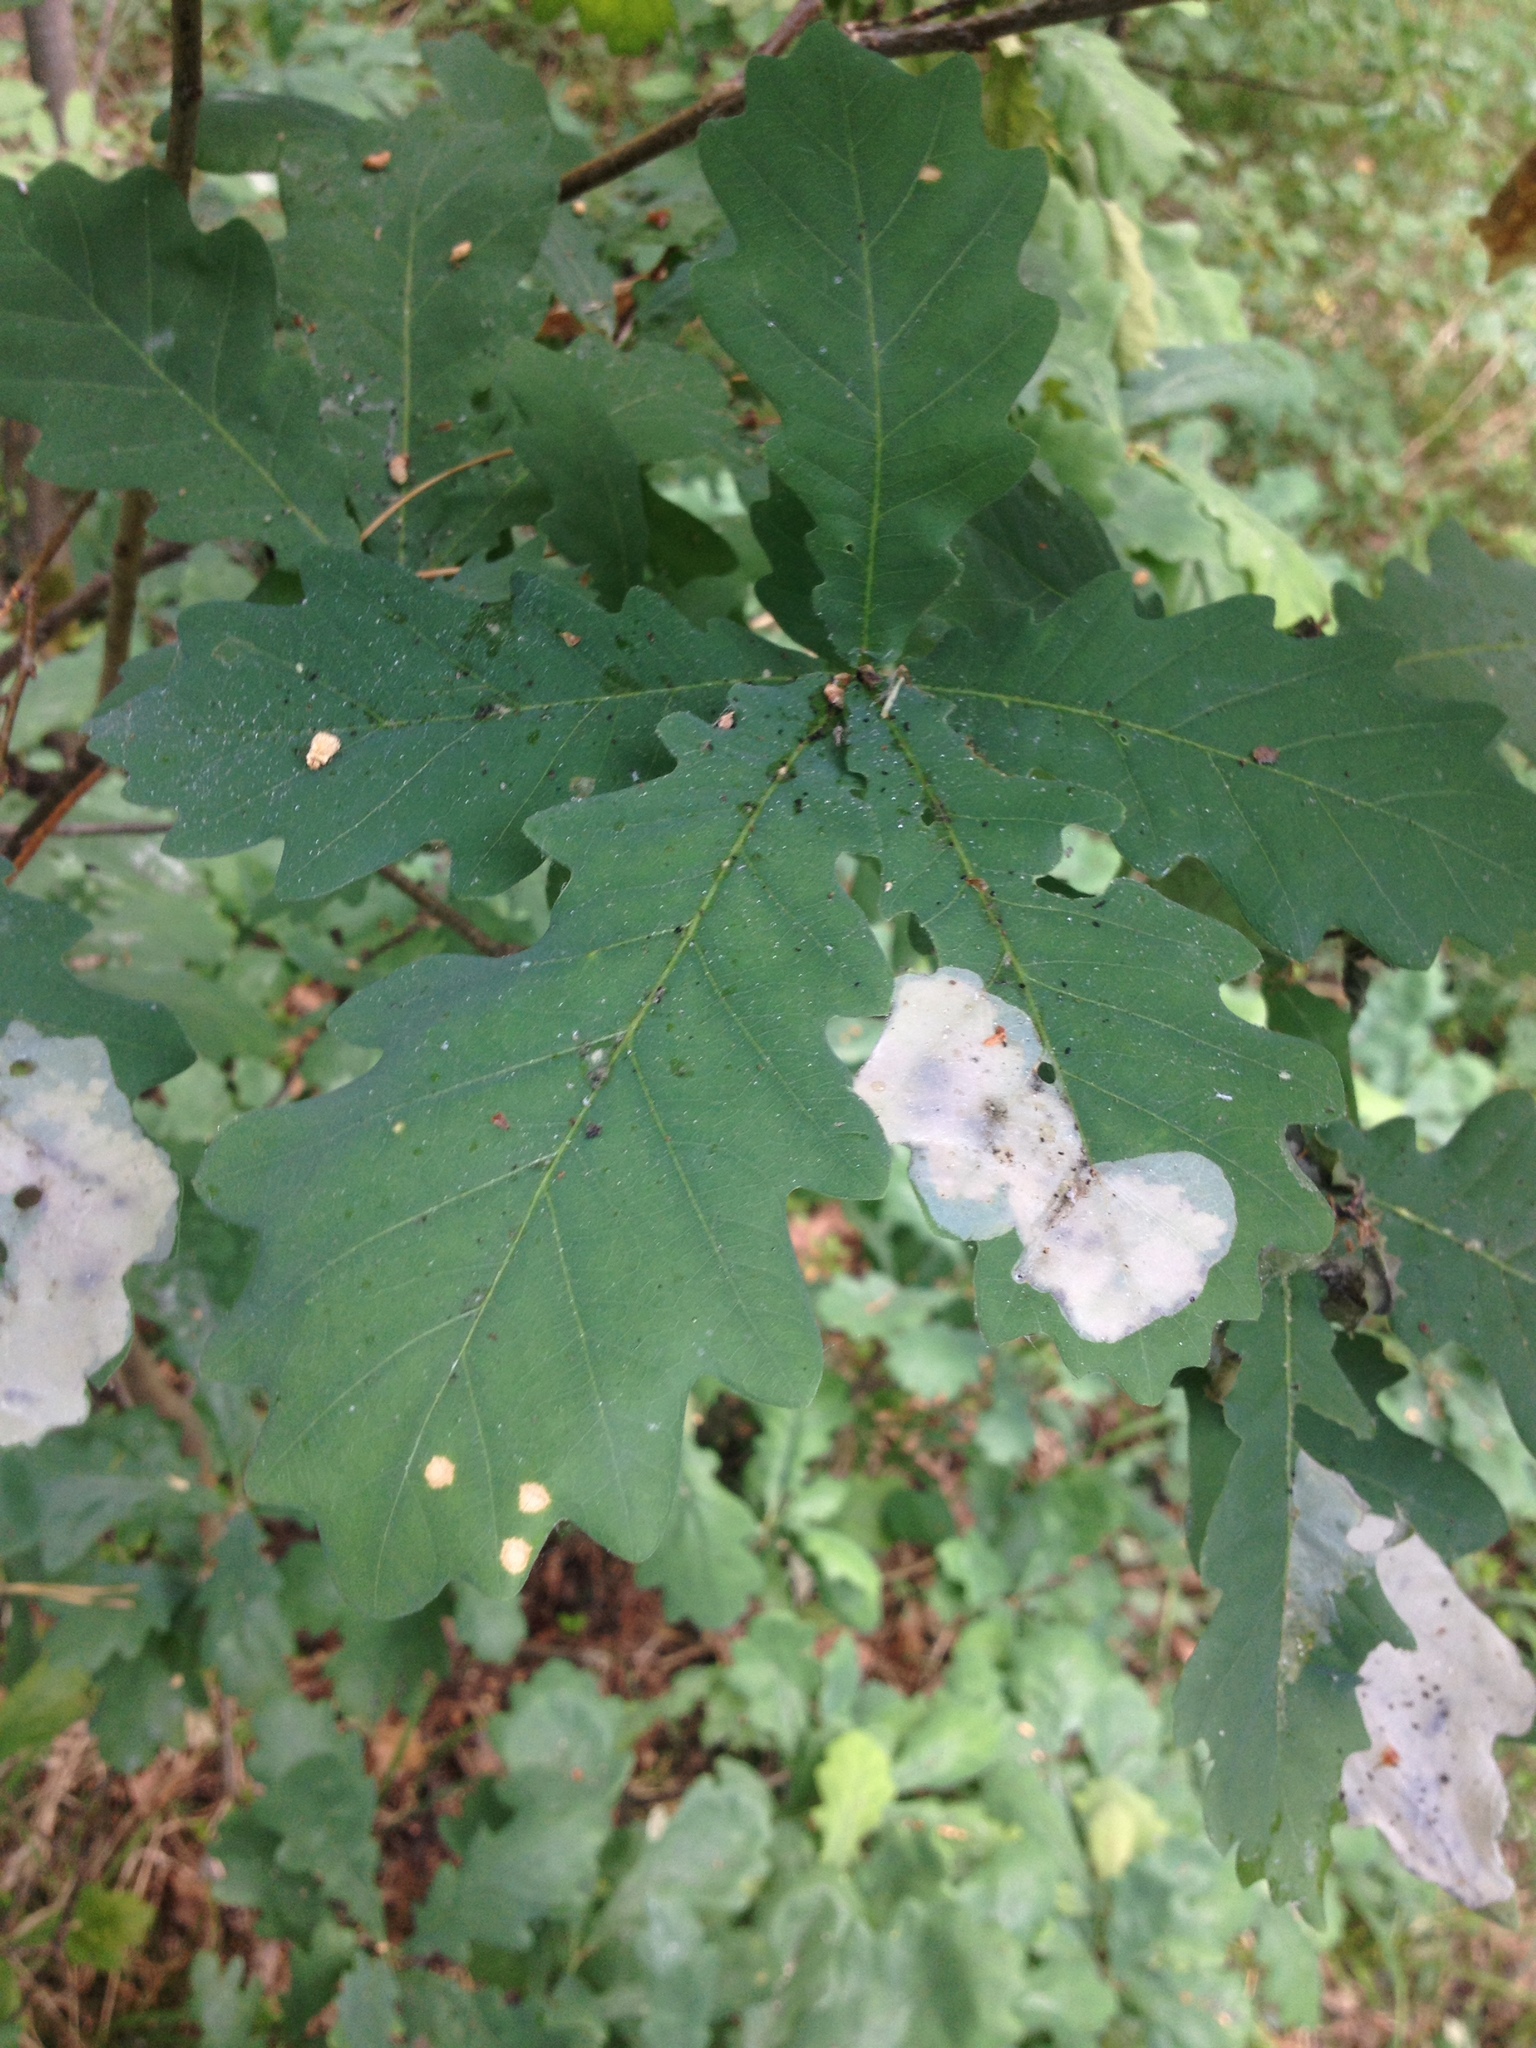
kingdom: Animalia
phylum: Arthropoda
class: Insecta
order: Lepidoptera
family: Gracillariidae
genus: Acrocercops
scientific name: Acrocercops brongniardella
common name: Brown oak slender
